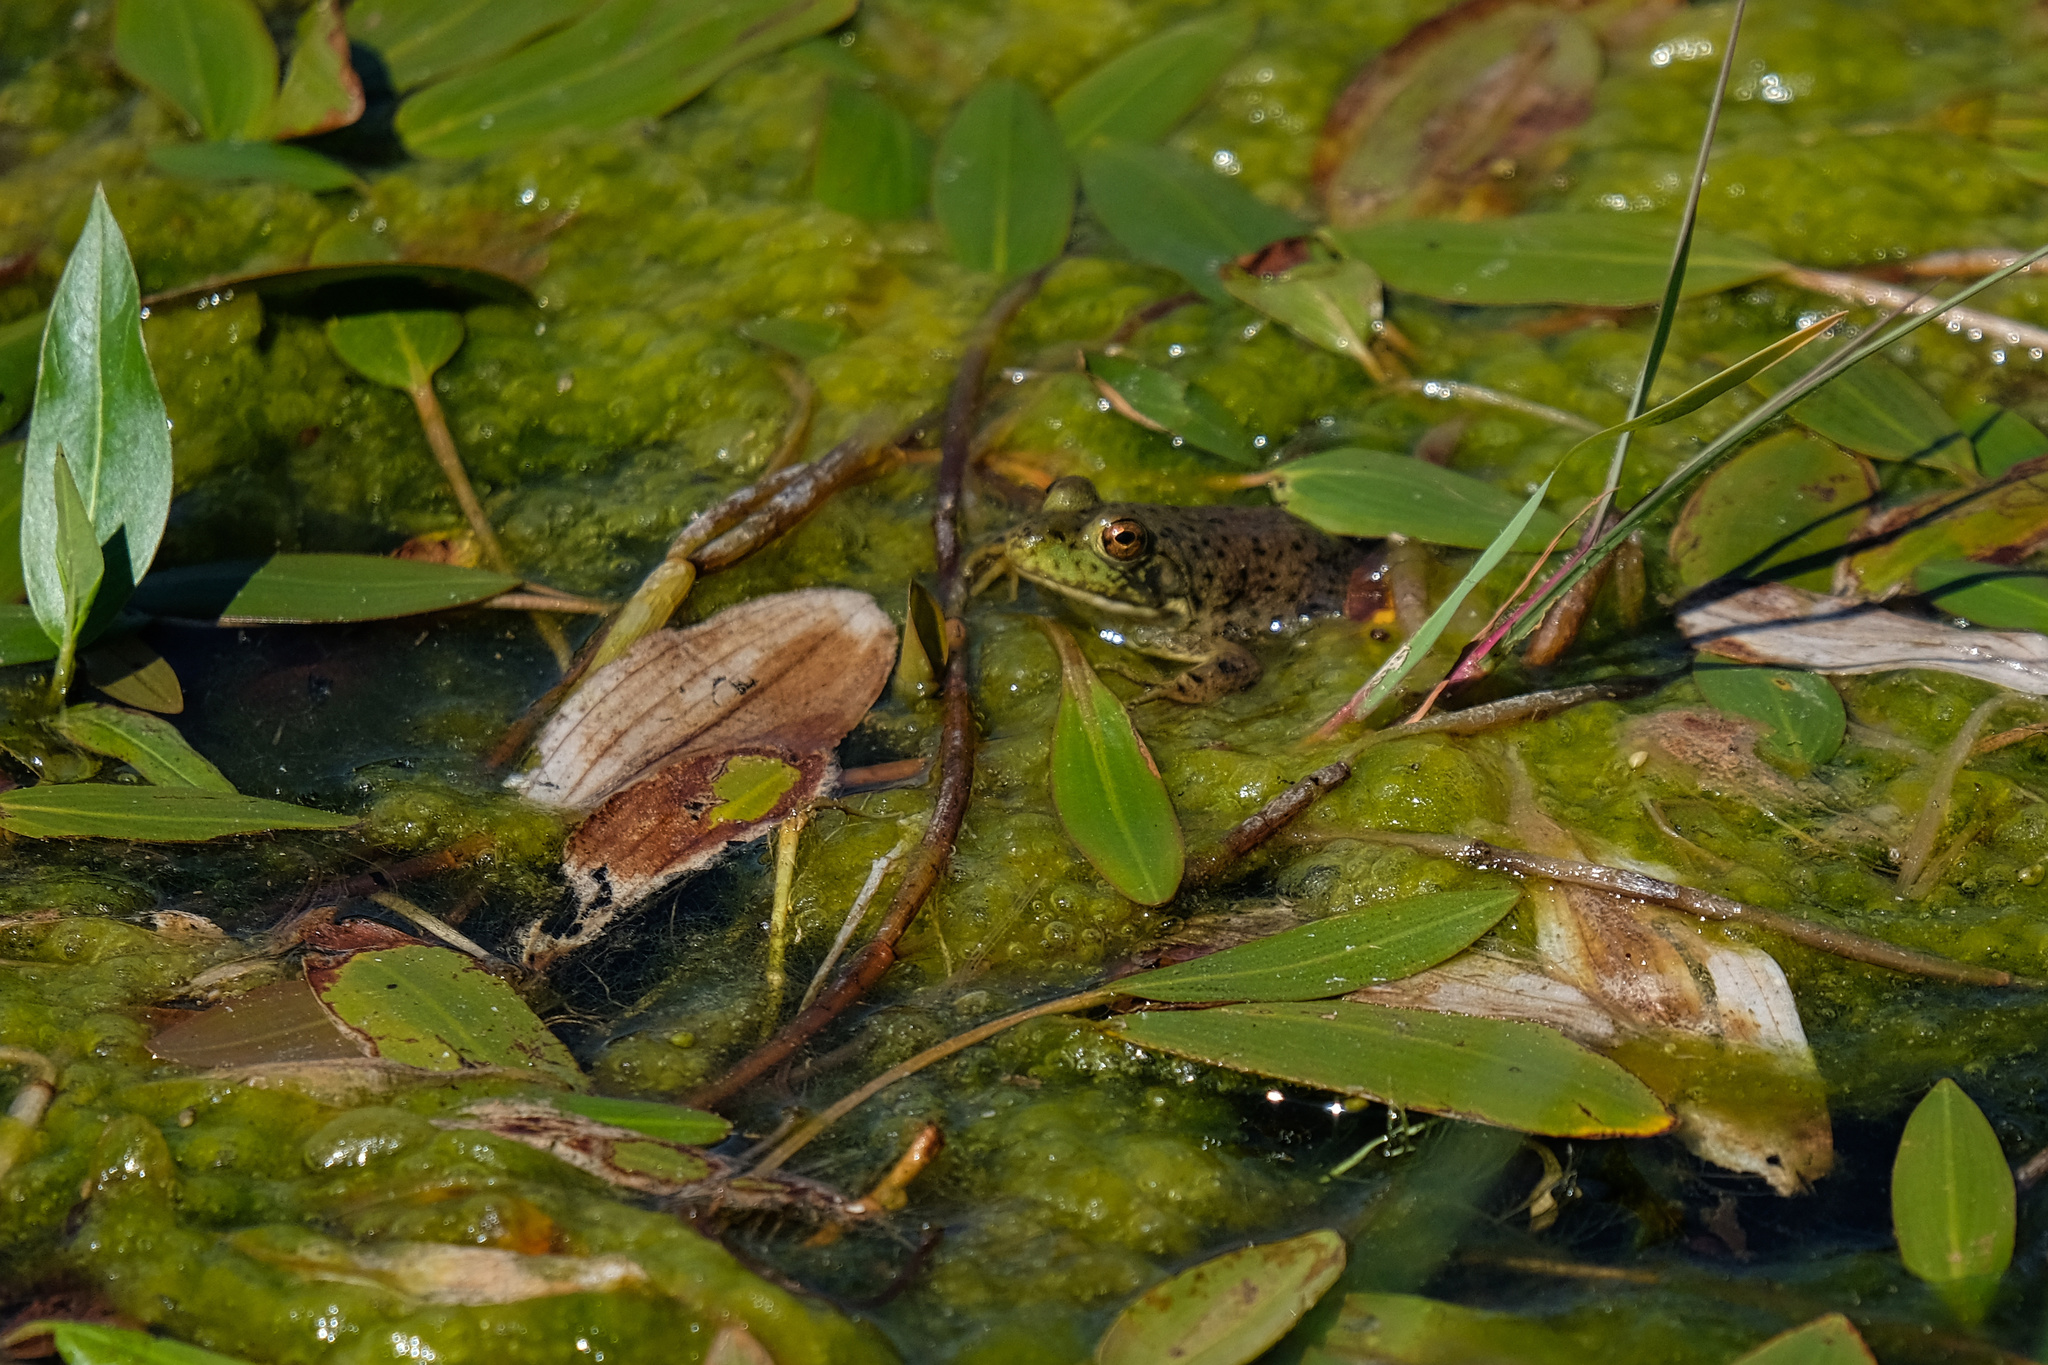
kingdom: Animalia
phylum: Chordata
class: Amphibia
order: Anura
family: Ranidae
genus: Lithobates
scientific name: Lithobates catesbeianus
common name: American bullfrog
